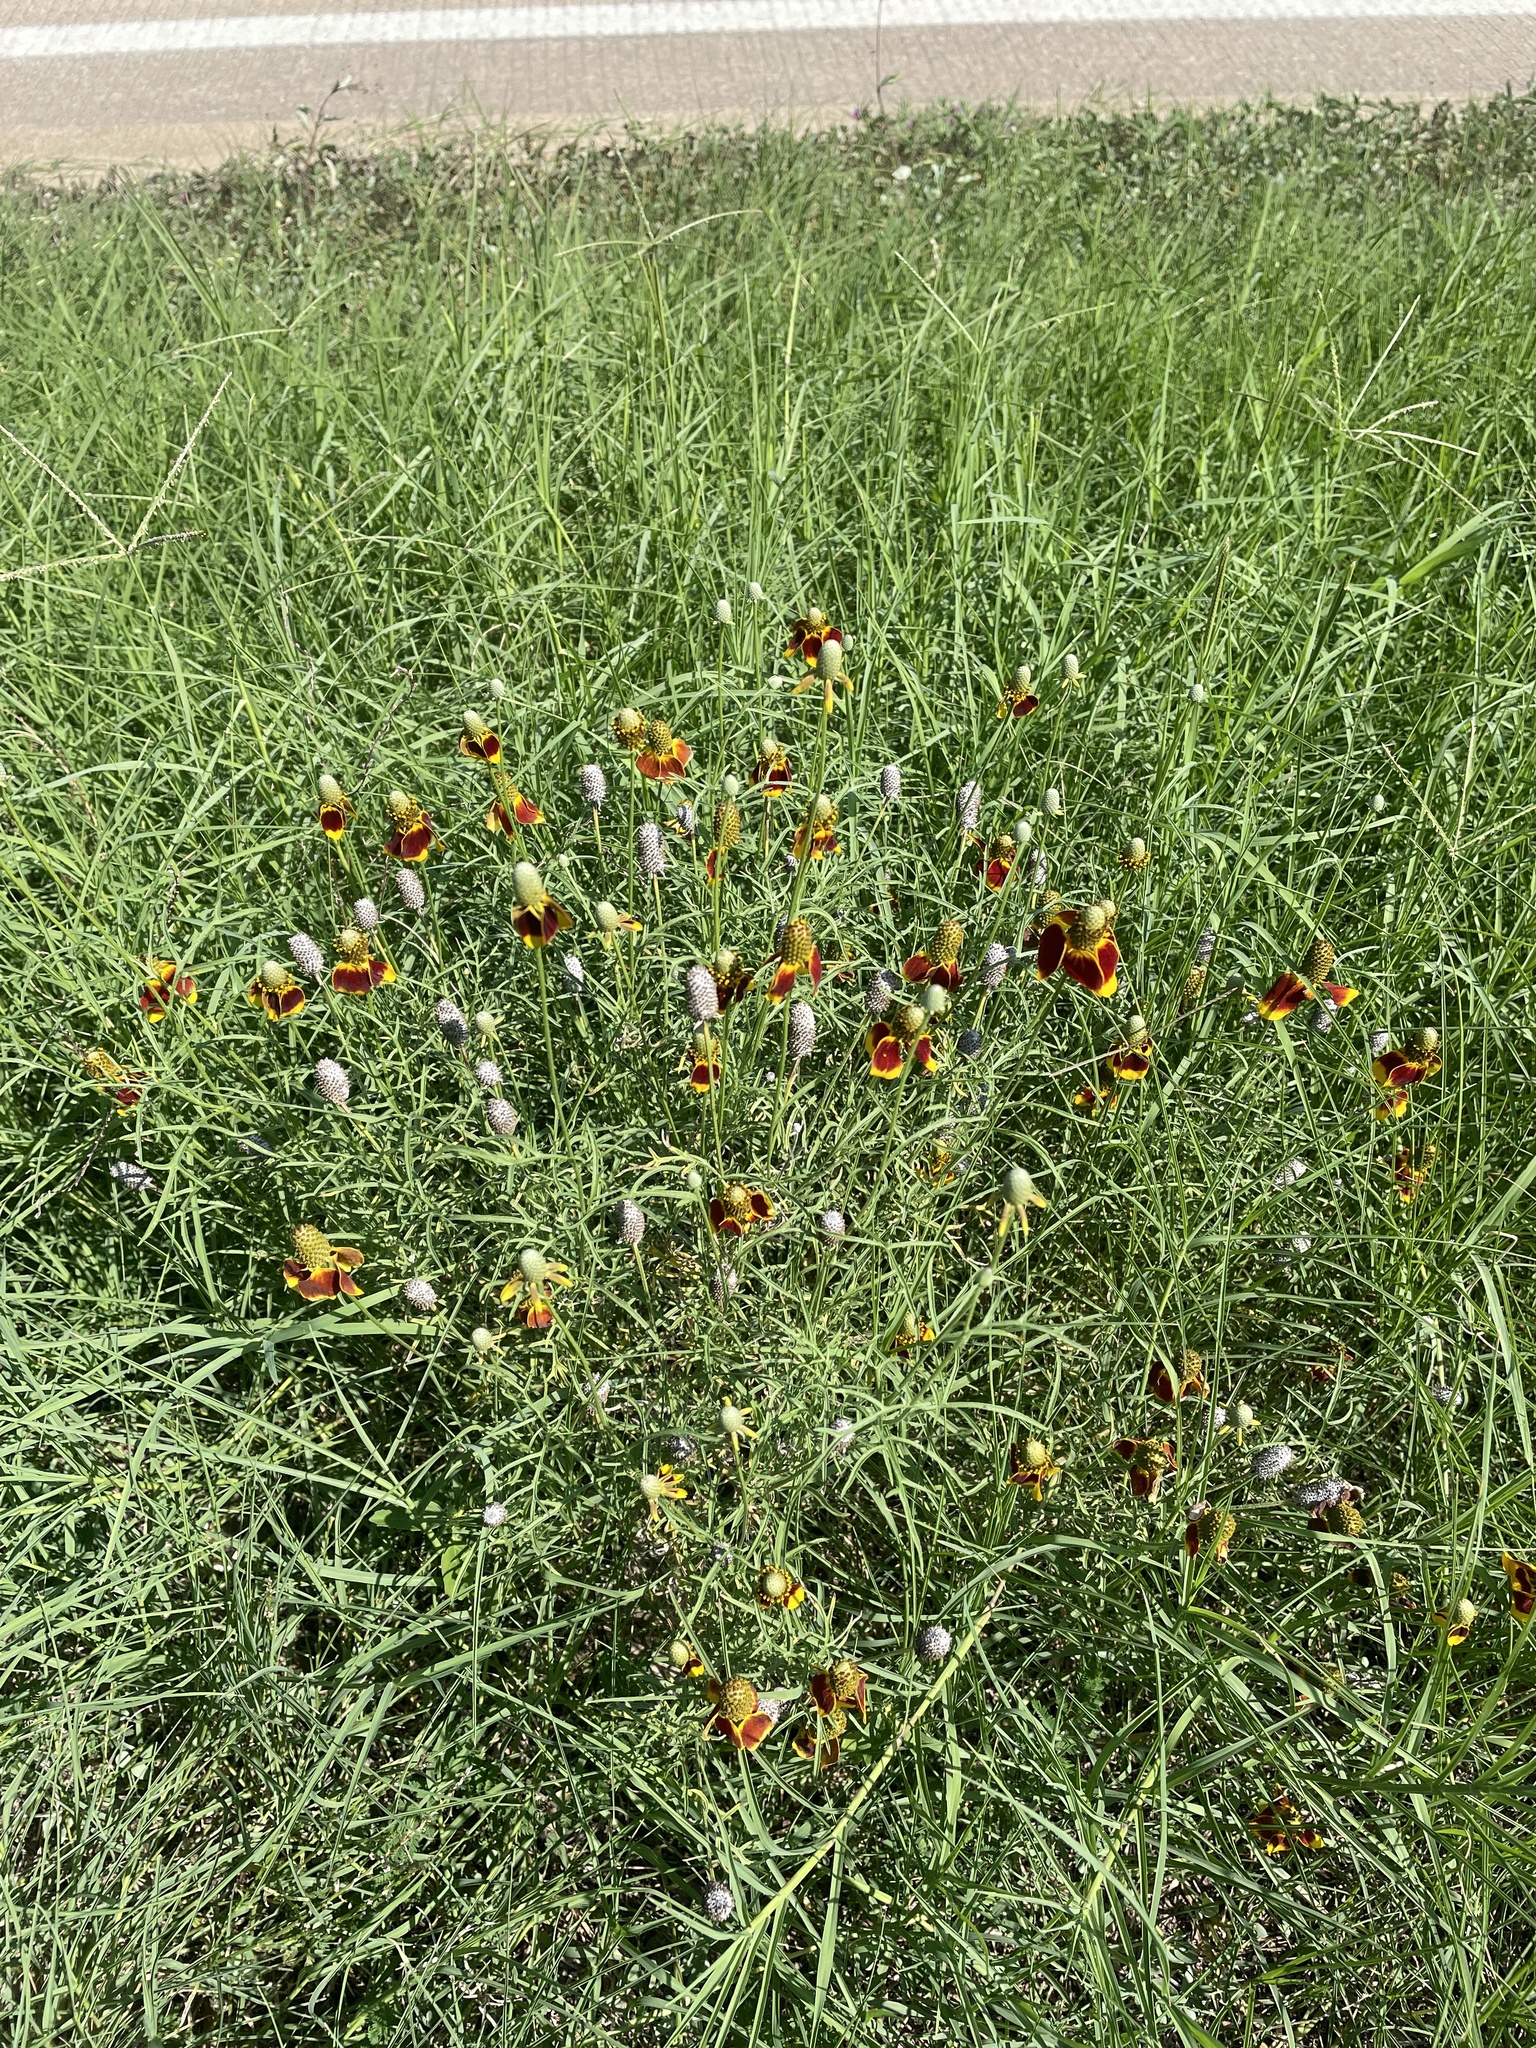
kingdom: Plantae
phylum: Tracheophyta
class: Magnoliopsida
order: Asterales
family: Asteraceae
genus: Ratibida
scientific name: Ratibida columnifera
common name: Prairie coneflower
